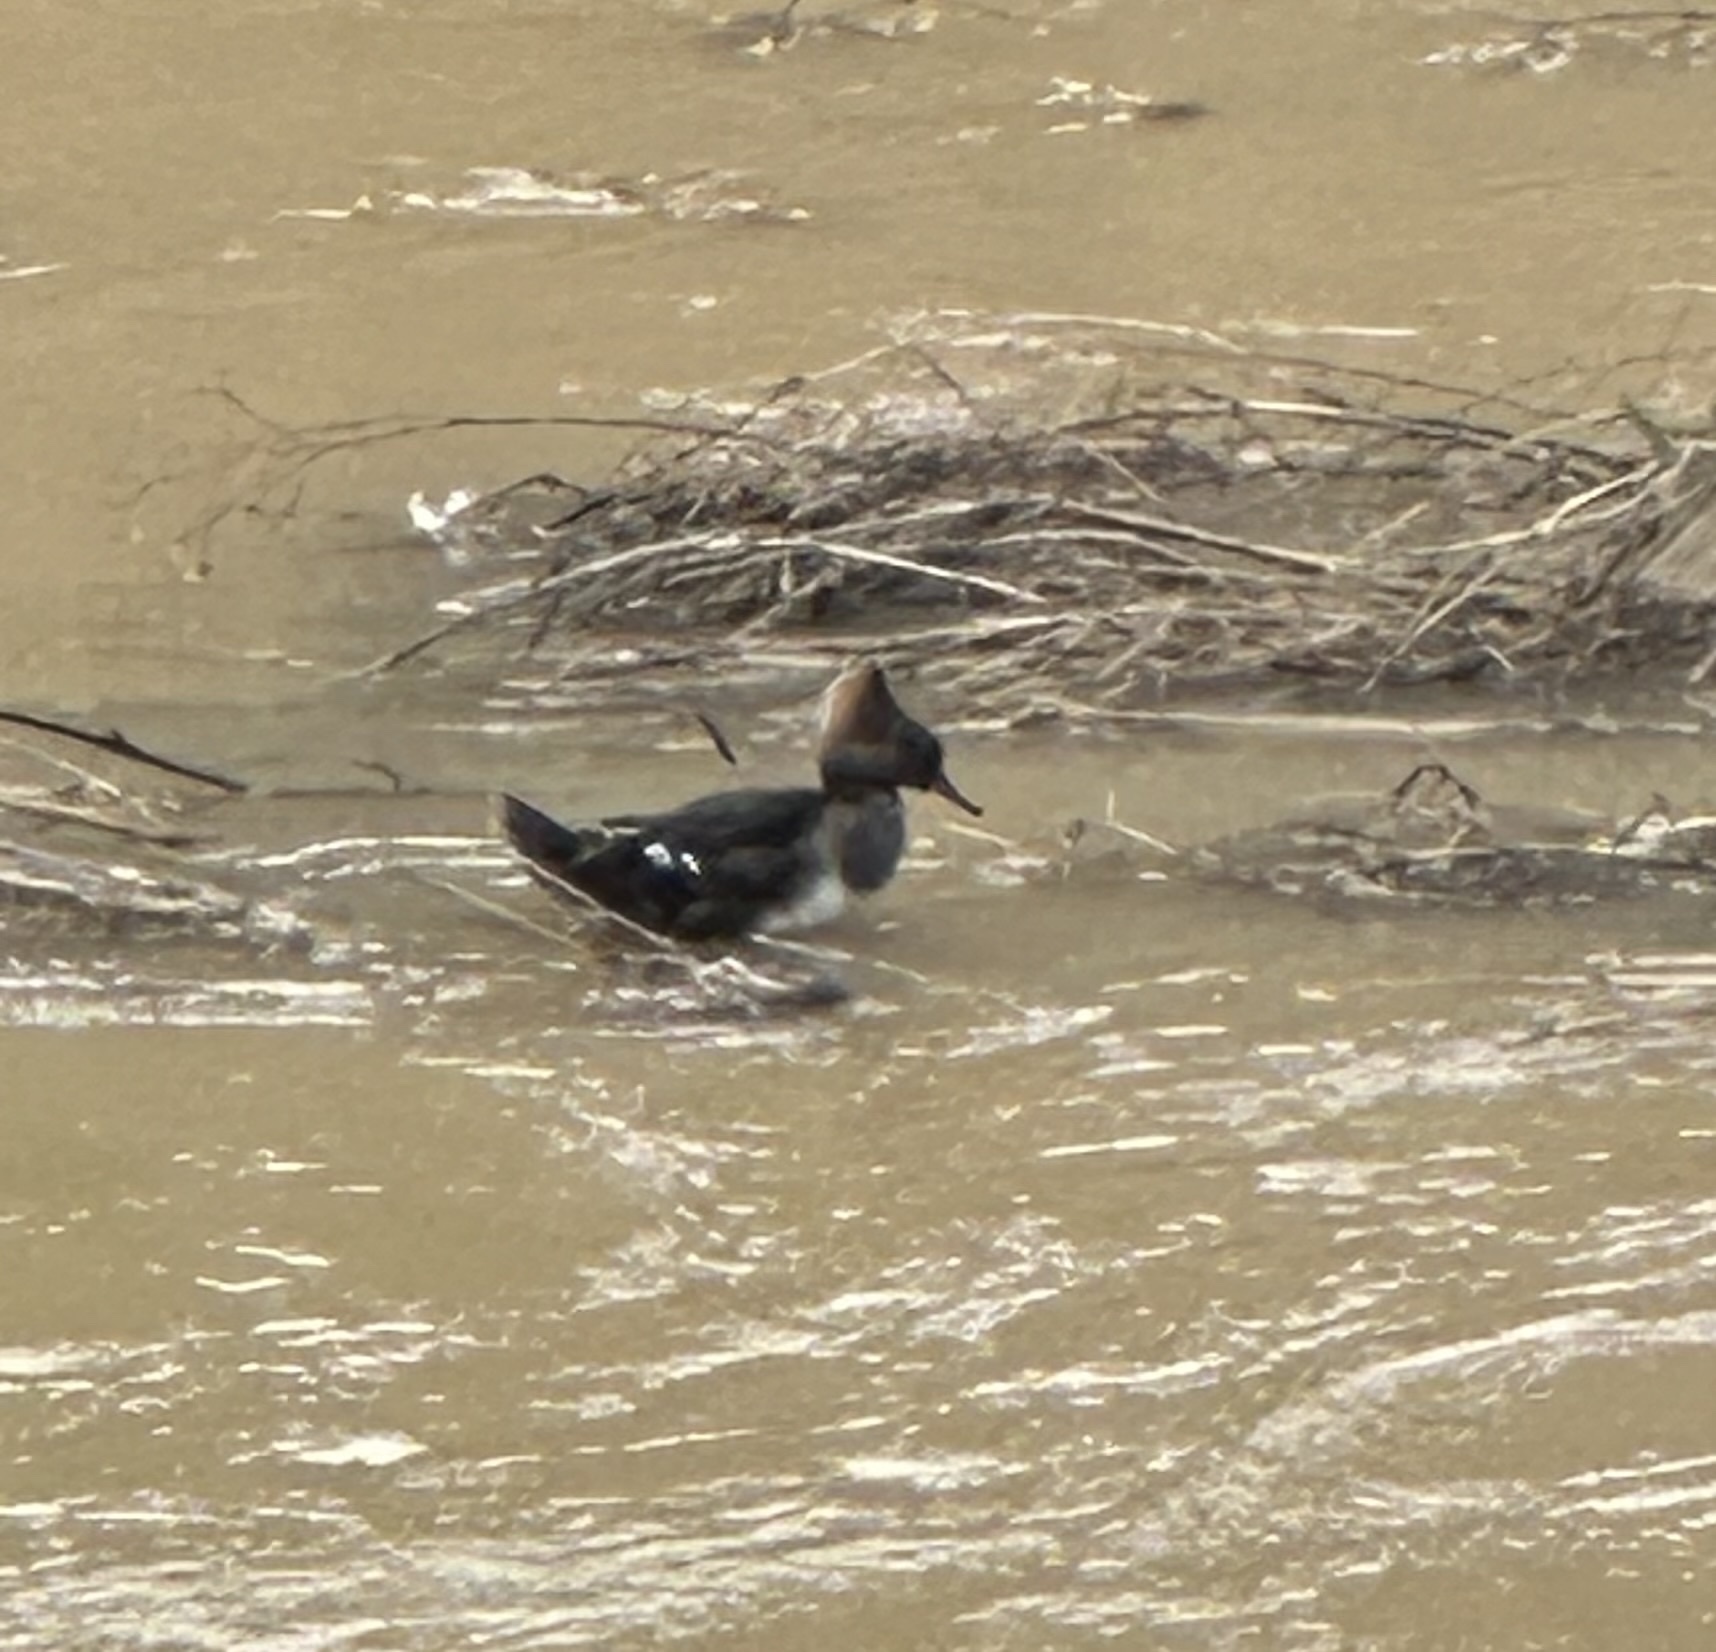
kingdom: Animalia
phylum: Chordata
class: Aves
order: Anseriformes
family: Anatidae
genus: Lophodytes
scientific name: Lophodytes cucullatus
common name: Hooded merganser
